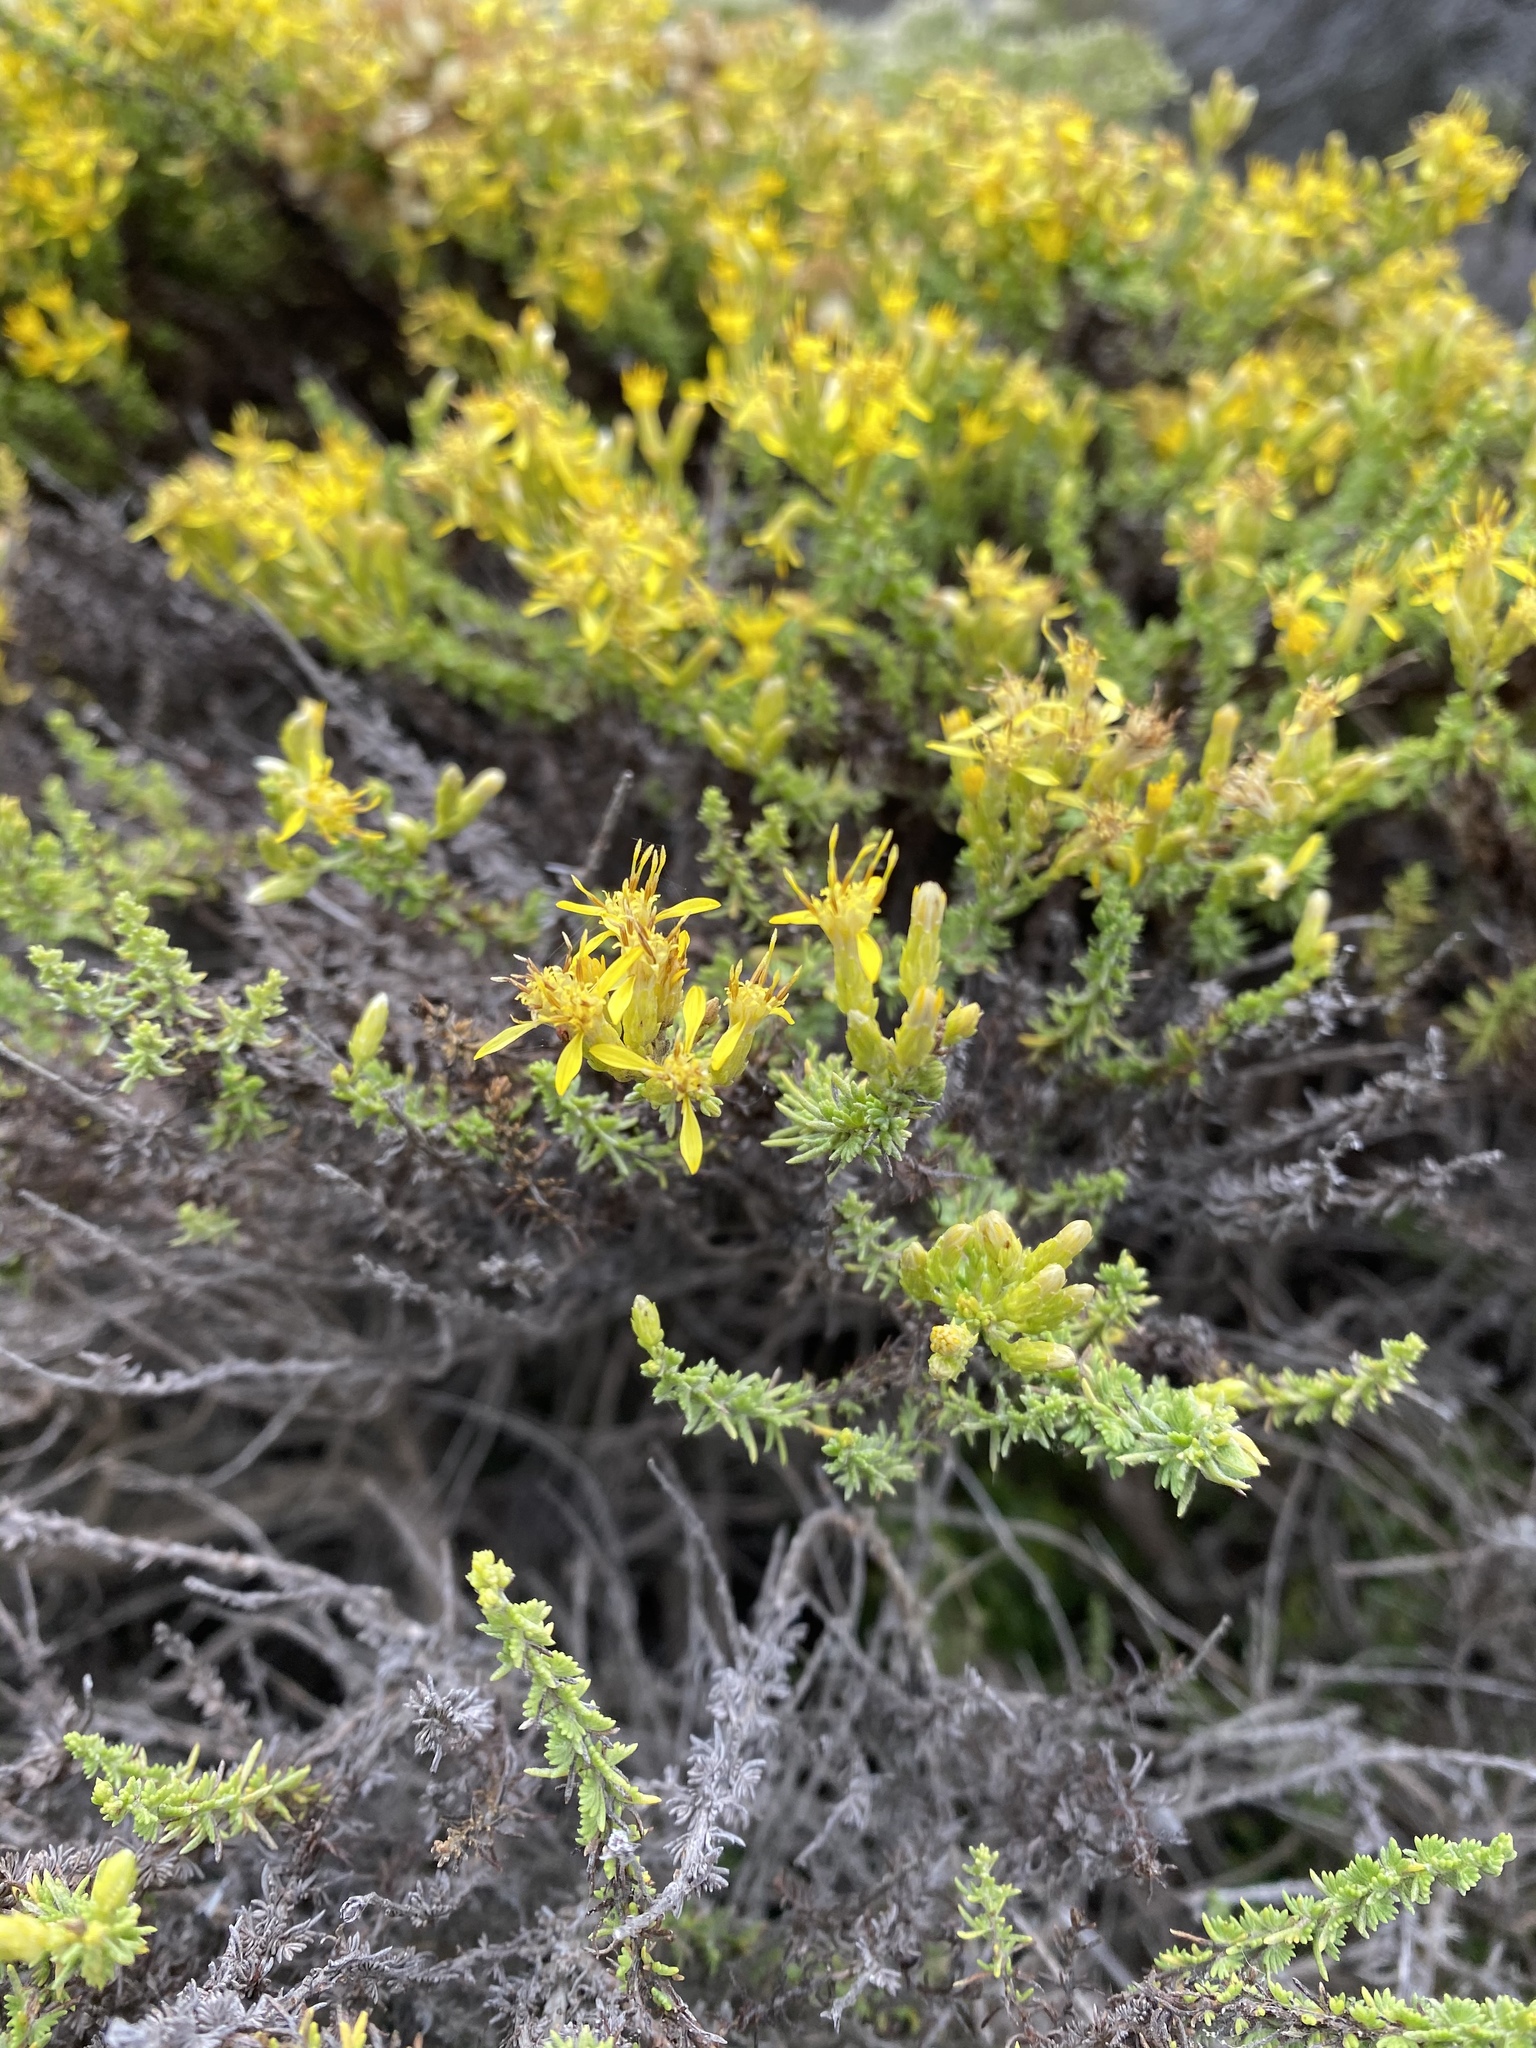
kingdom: Plantae
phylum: Tracheophyta
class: Magnoliopsida
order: Asterales
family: Asteraceae
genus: Ericameria
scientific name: Ericameria ericoides
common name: California goldenbush
